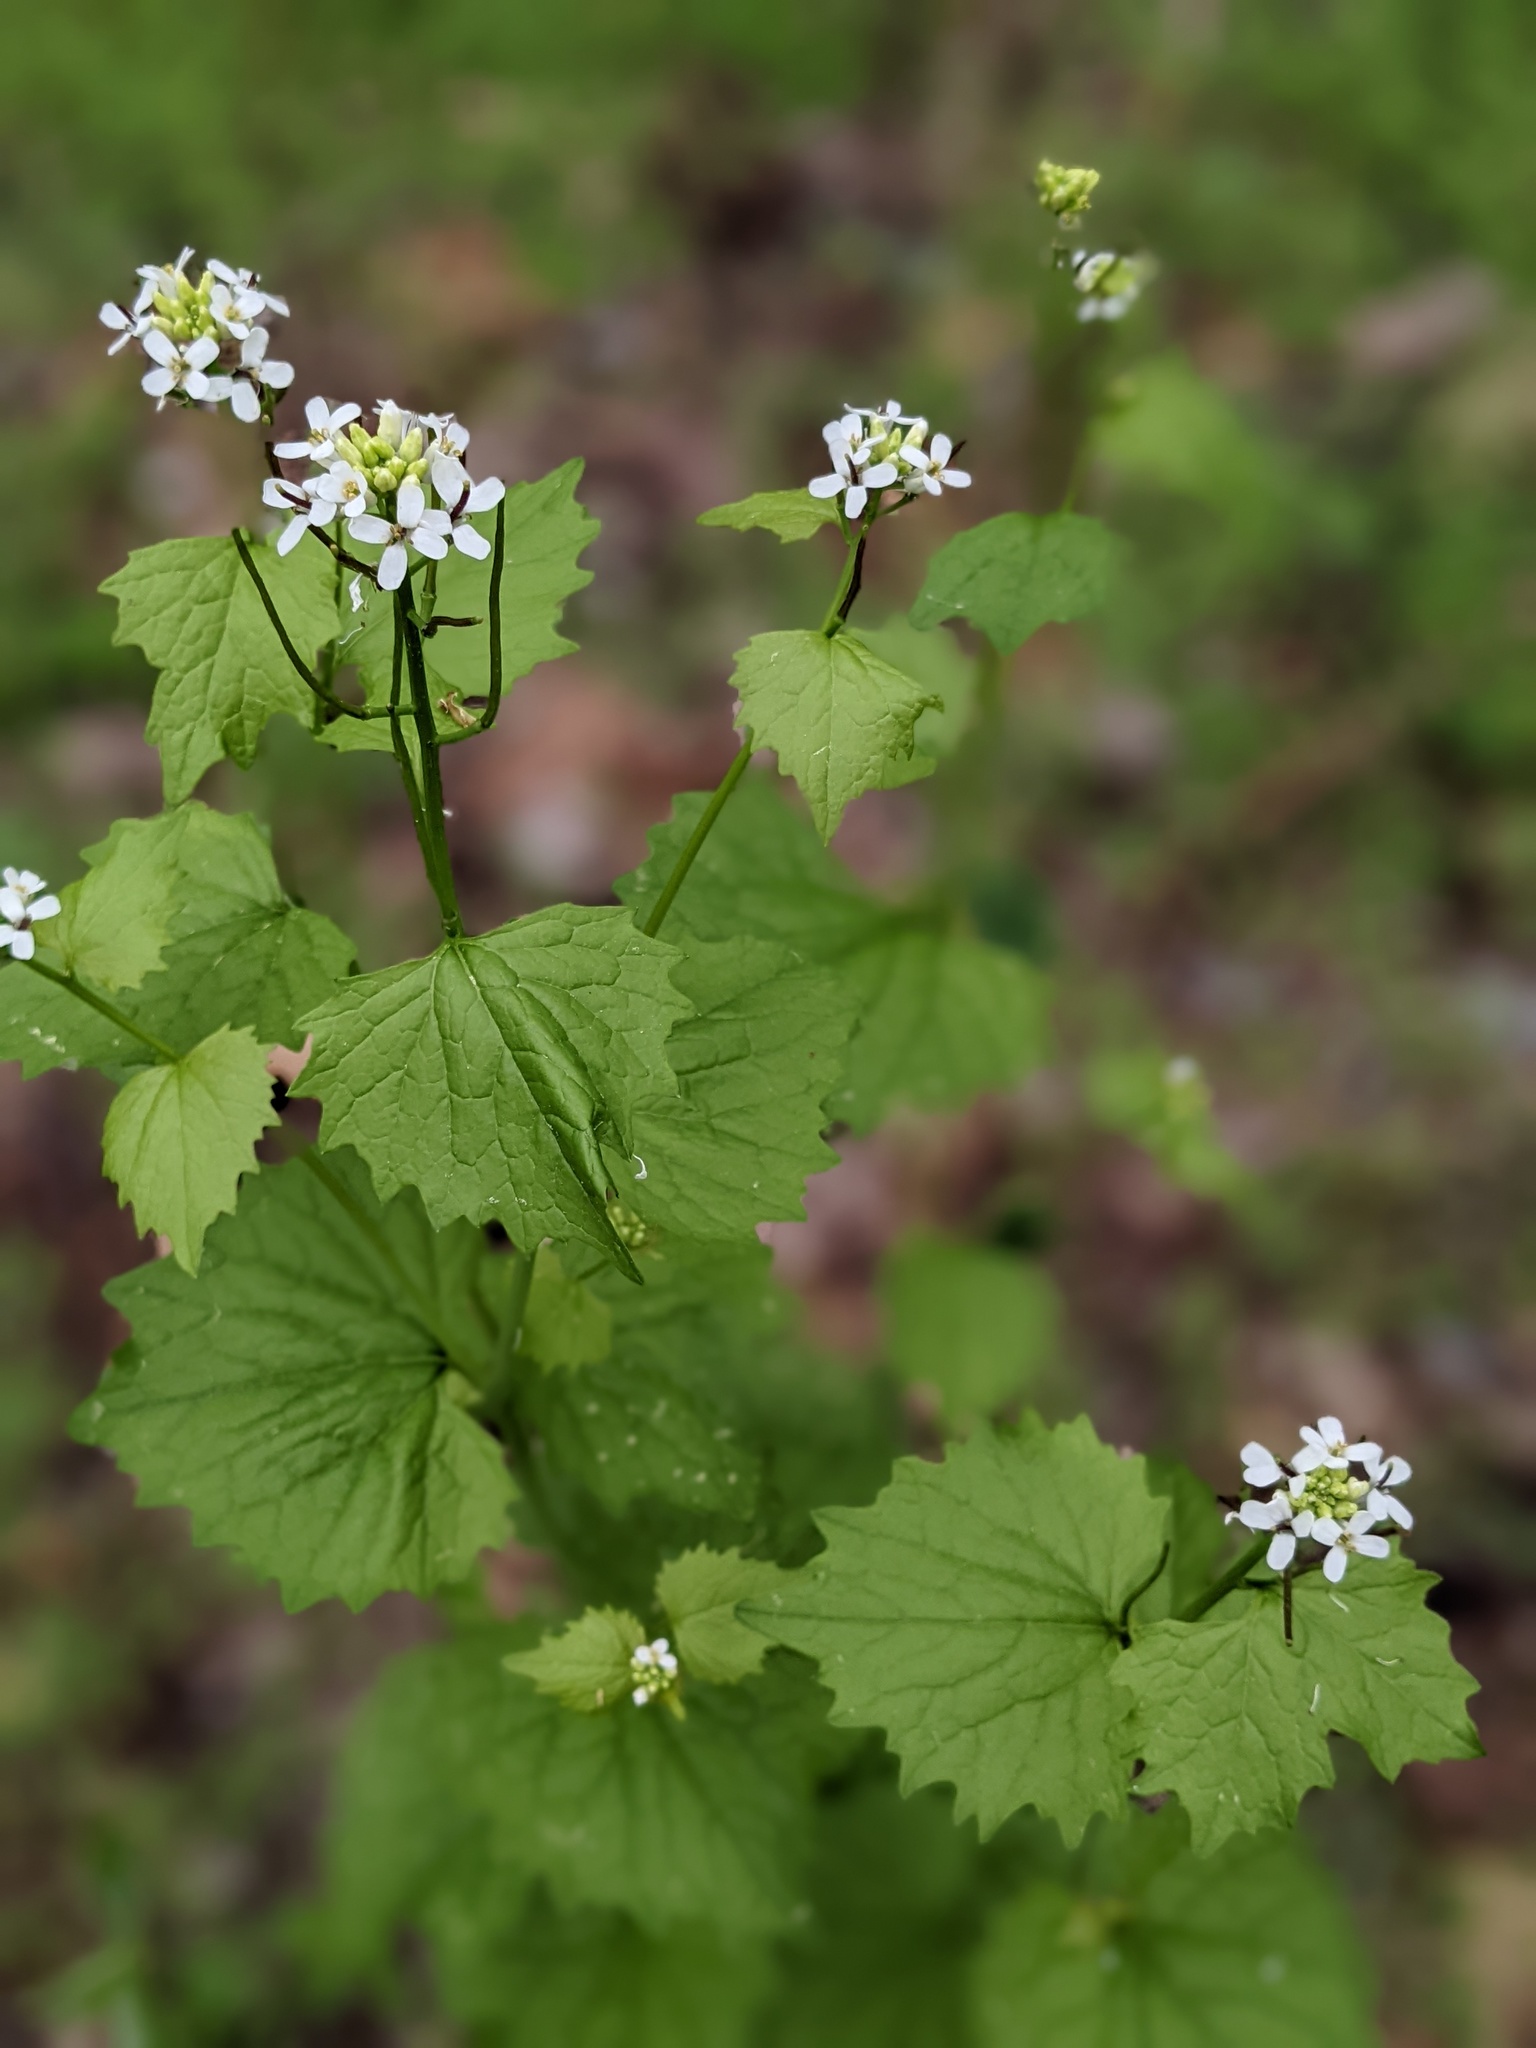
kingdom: Plantae
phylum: Tracheophyta
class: Magnoliopsida
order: Brassicales
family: Brassicaceae
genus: Alliaria
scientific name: Alliaria petiolata
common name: Garlic mustard
